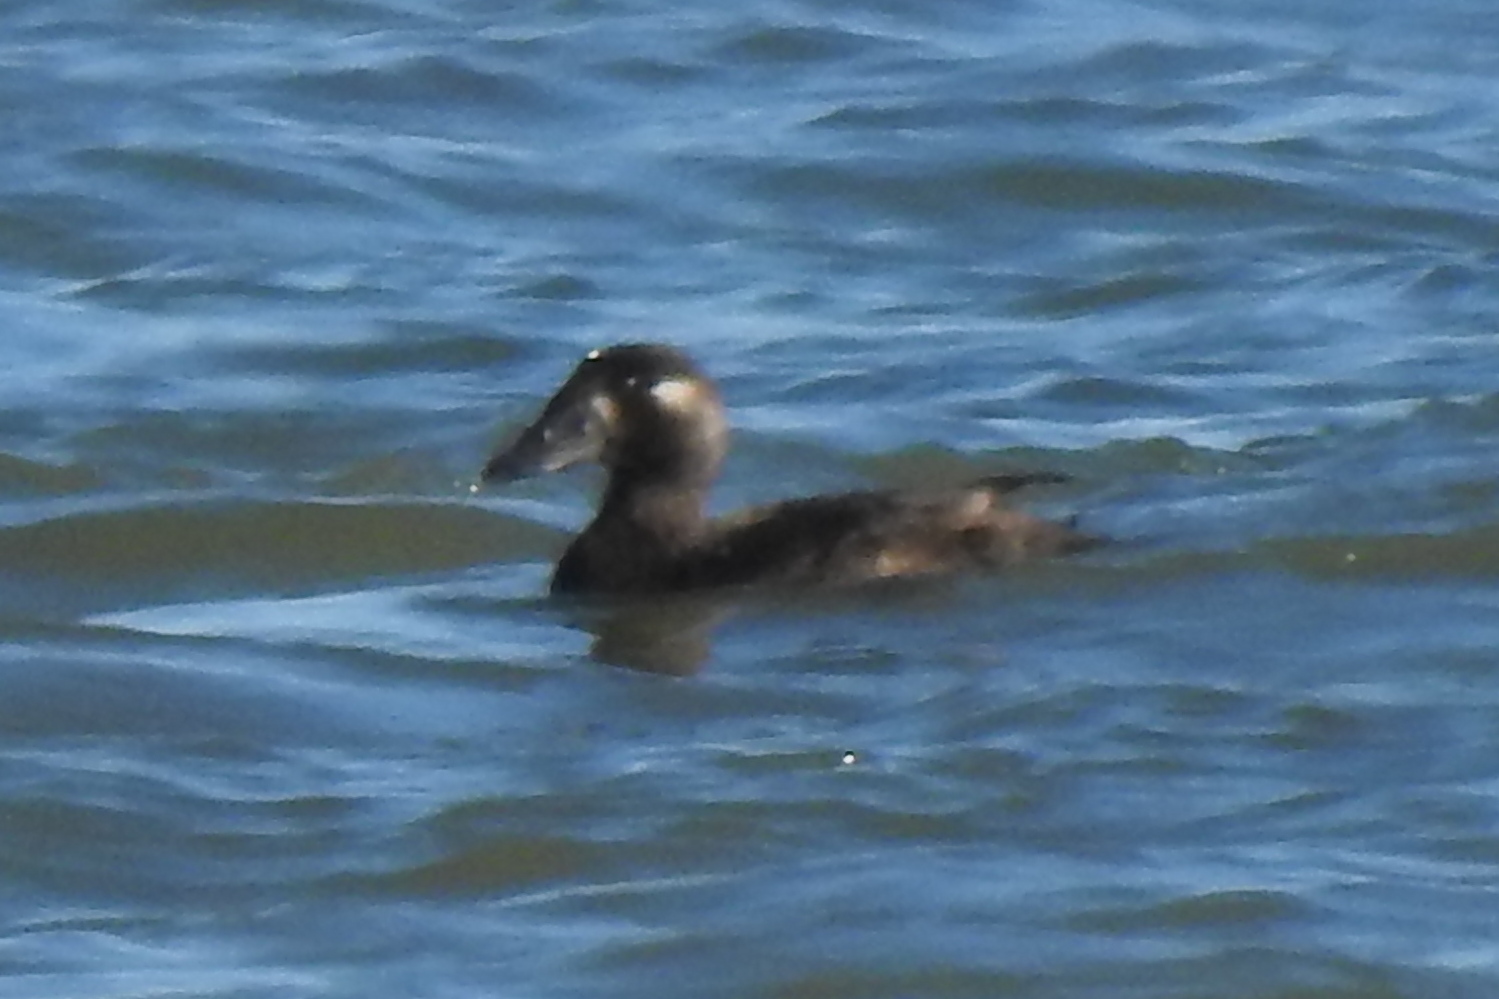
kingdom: Animalia
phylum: Chordata
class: Aves
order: Anseriformes
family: Anatidae
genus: Melanitta
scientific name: Melanitta perspicillata
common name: Surf scoter
